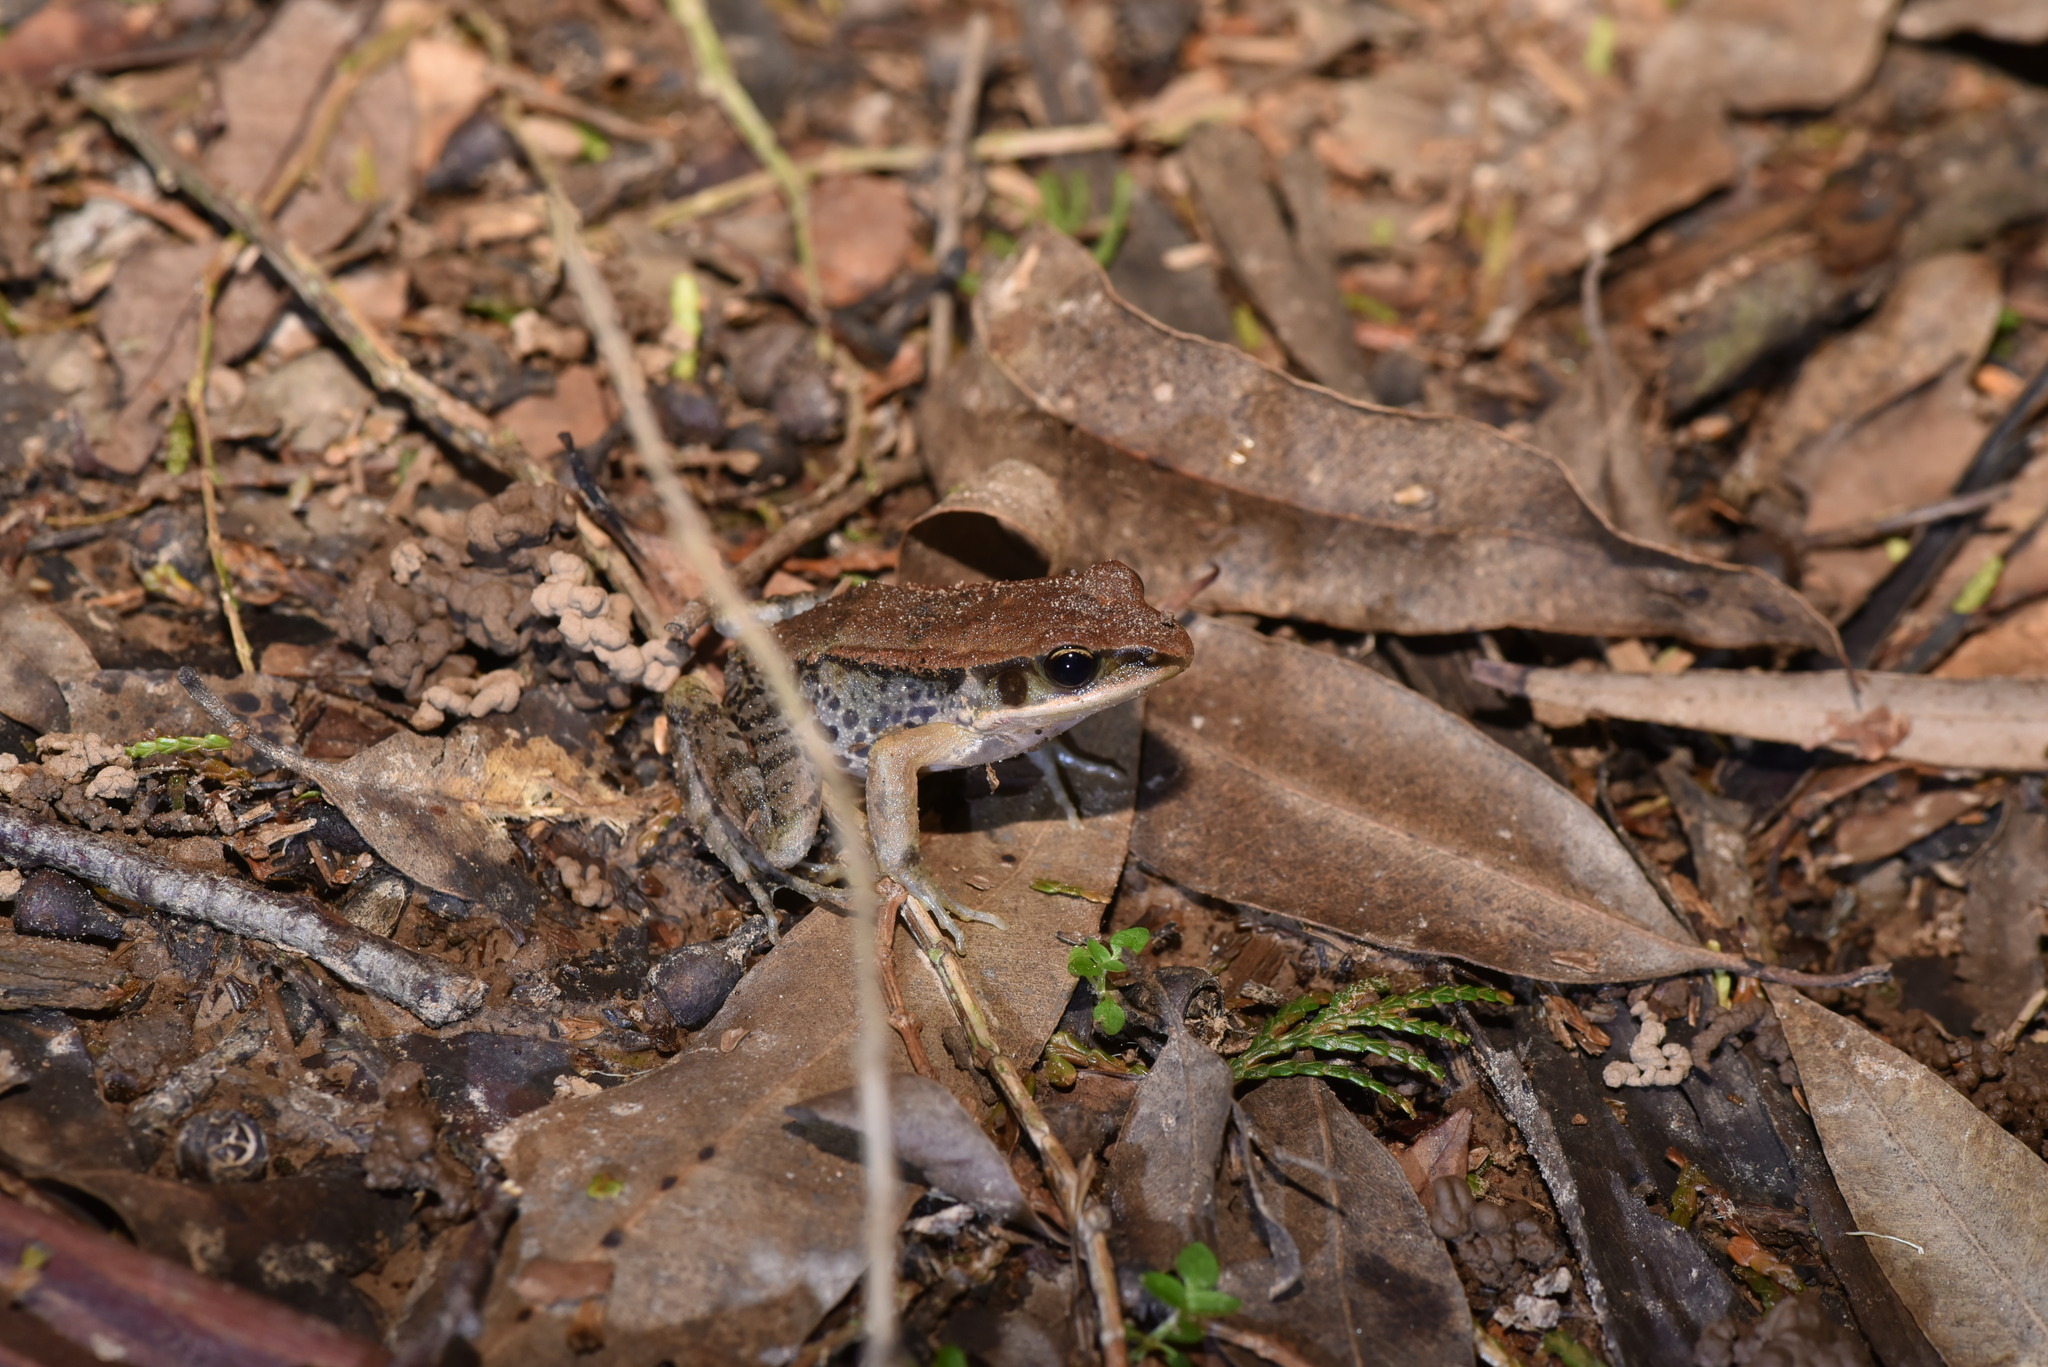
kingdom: Animalia
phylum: Chordata
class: Amphibia
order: Anura
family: Ranidae
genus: Hylarana
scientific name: Hylarana latouchii
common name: Broad-folded frog
